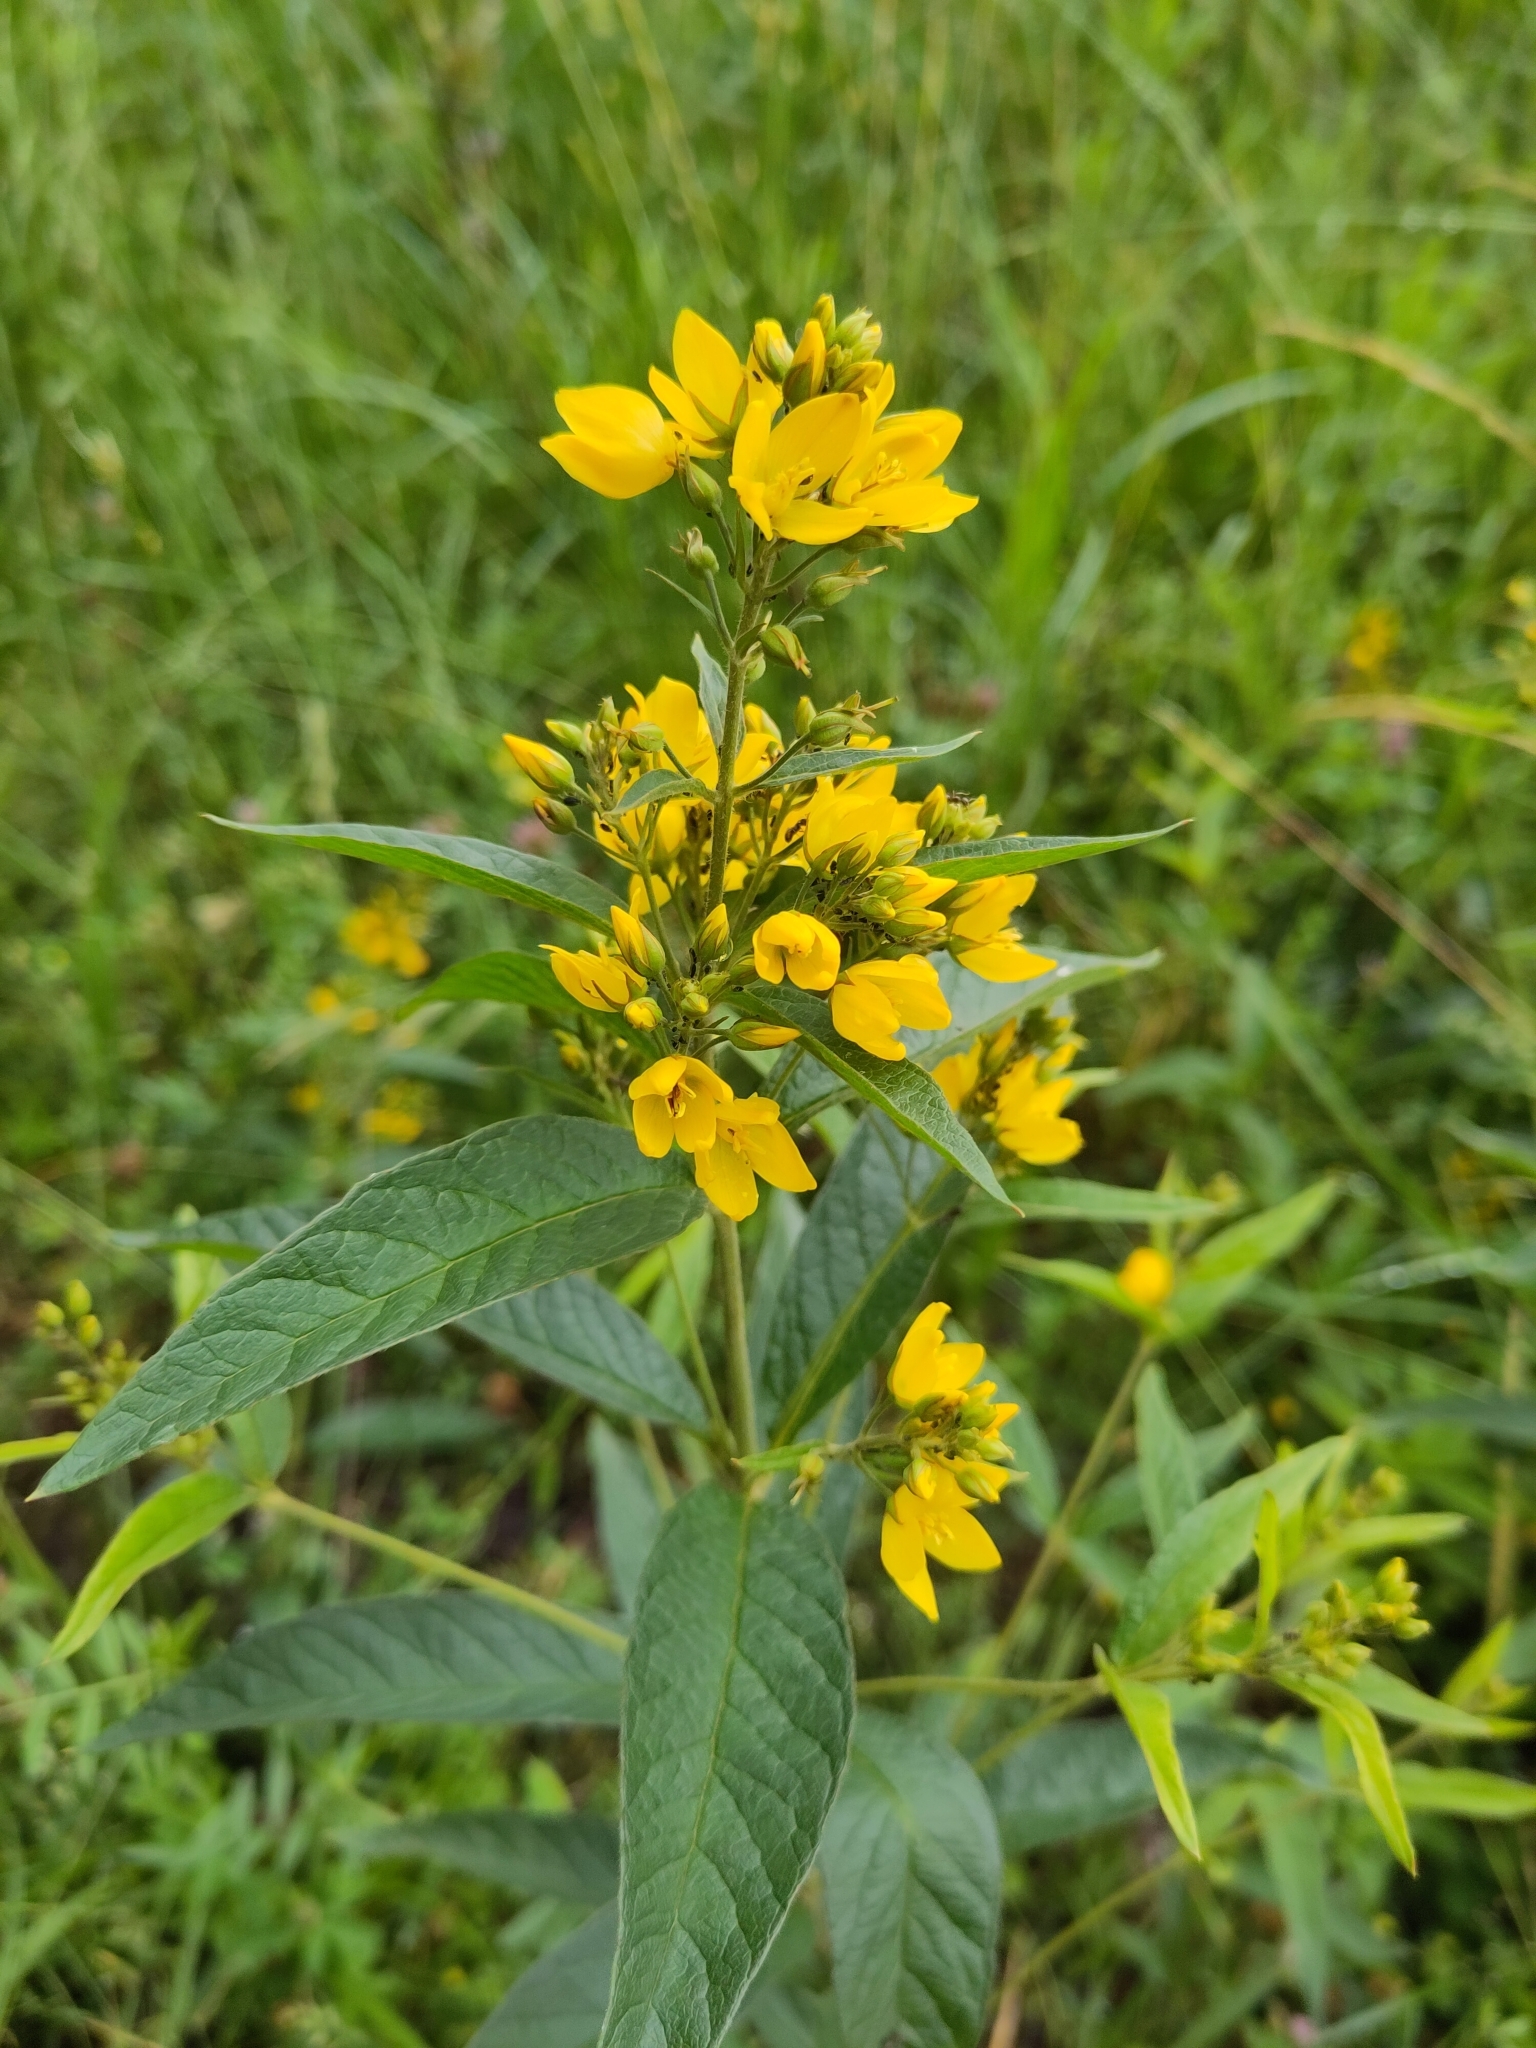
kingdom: Plantae
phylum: Tracheophyta
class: Magnoliopsida
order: Ericales
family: Primulaceae
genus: Lysimachia
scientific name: Lysimachia vulgaris
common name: Yellow loosestrife
